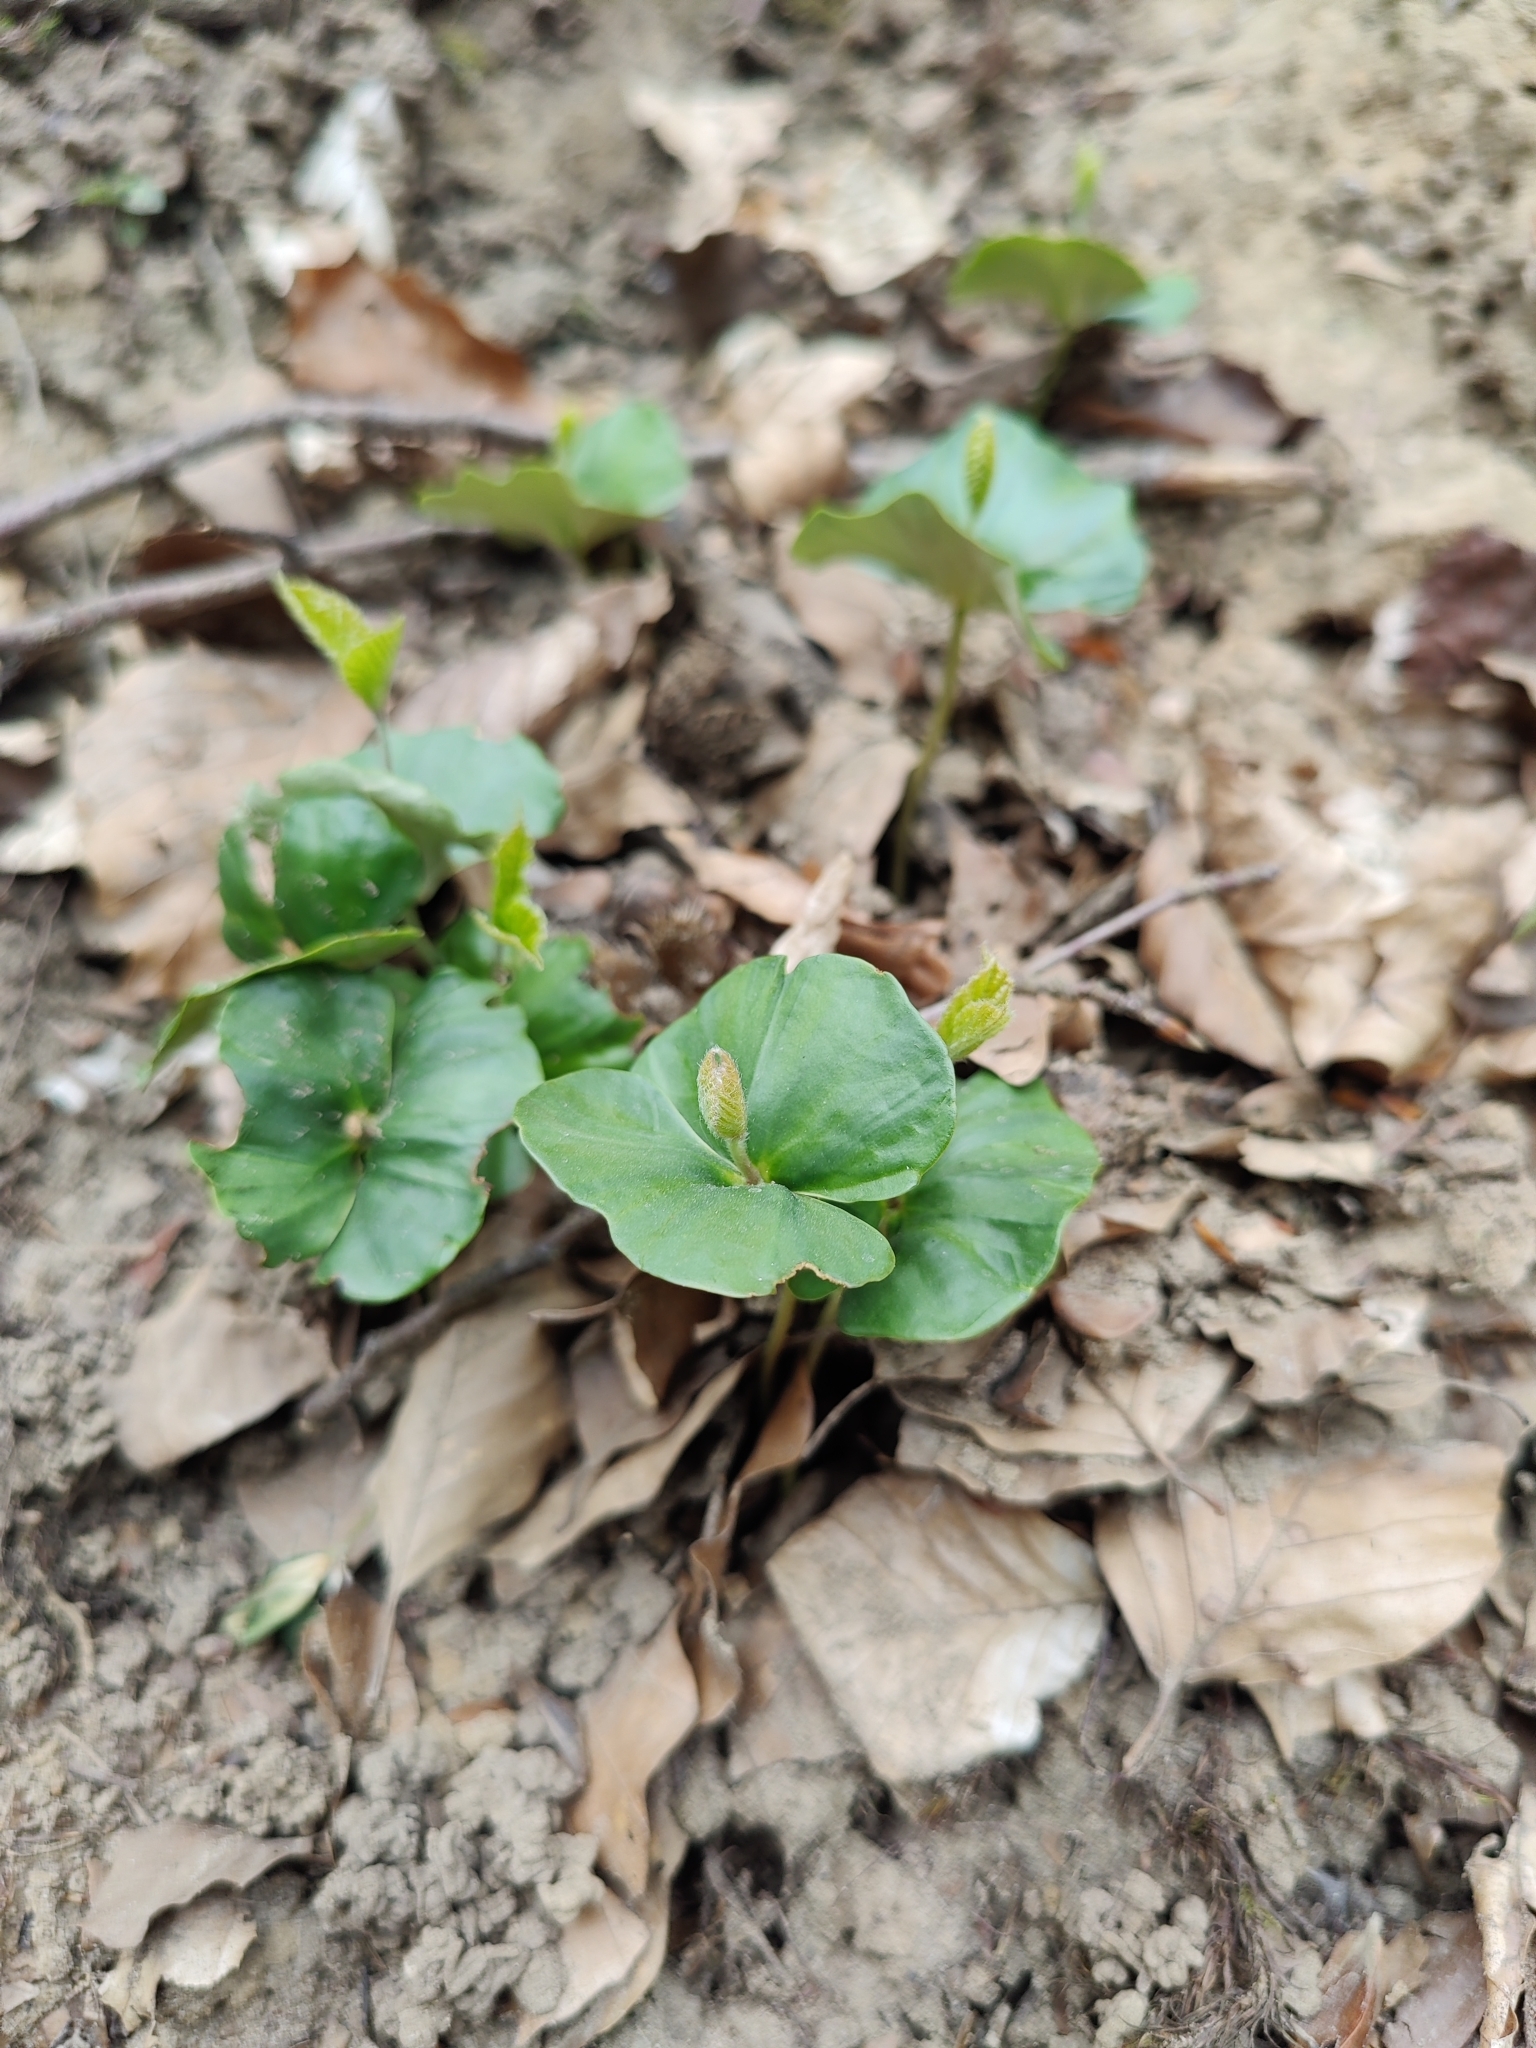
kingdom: Plantae
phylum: Tracheophyta
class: Magnoliopsida
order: Fagales
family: Fagaceae
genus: Fagus
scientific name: Fagus sylvatica
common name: Beech
